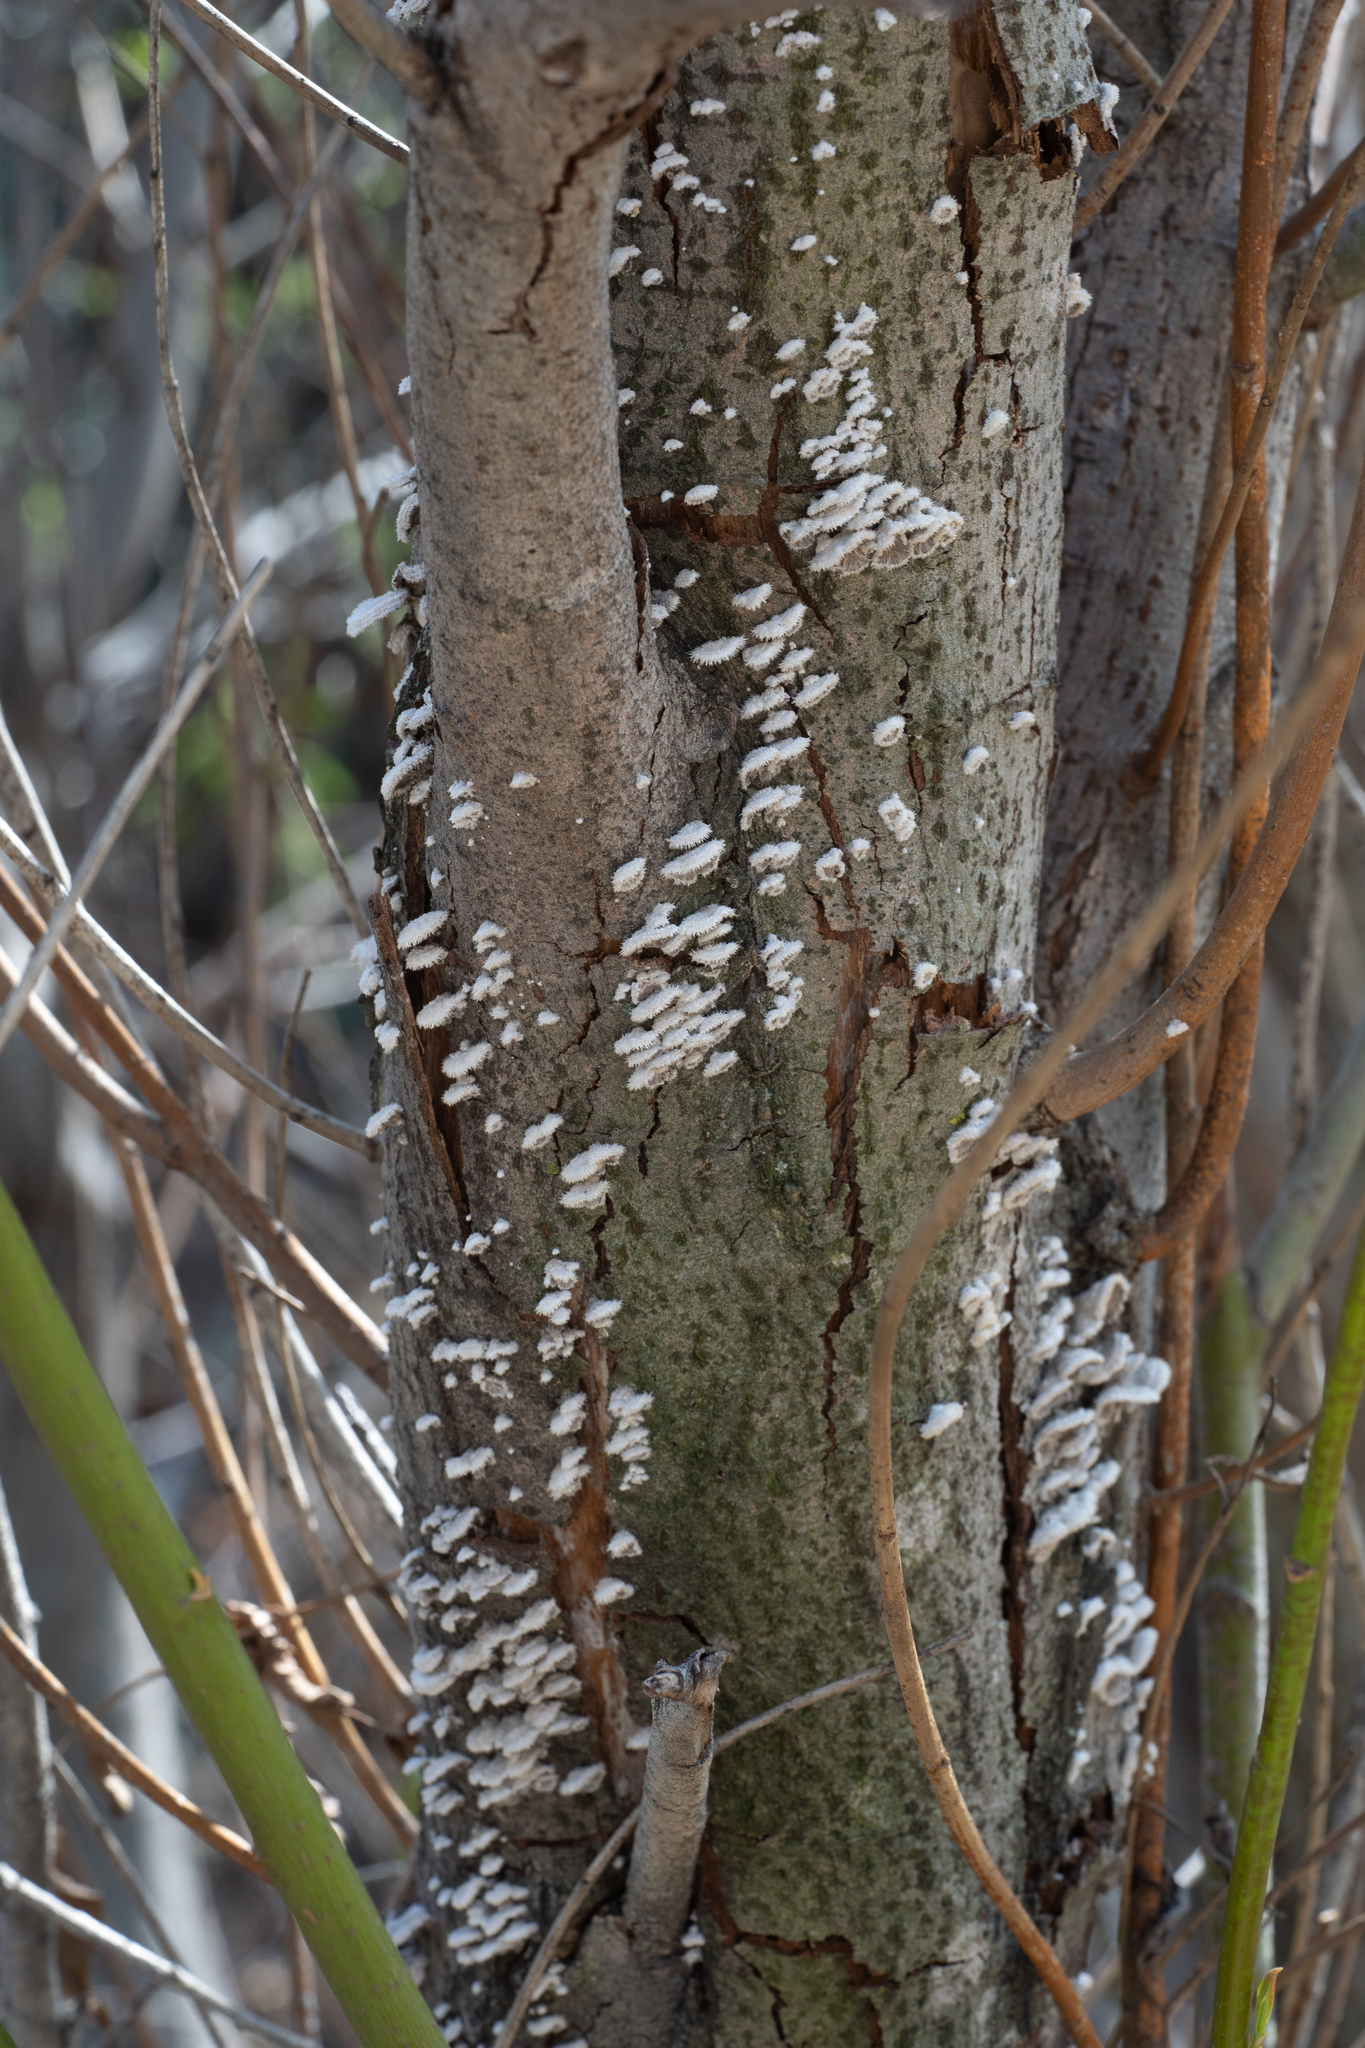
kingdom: Fungi
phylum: Basidiomycota
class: Agaricomycetes
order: Agaricales
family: Schizophyllaceae
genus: Schizophyllum
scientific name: Schizophyllum commune
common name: Common porecrust
